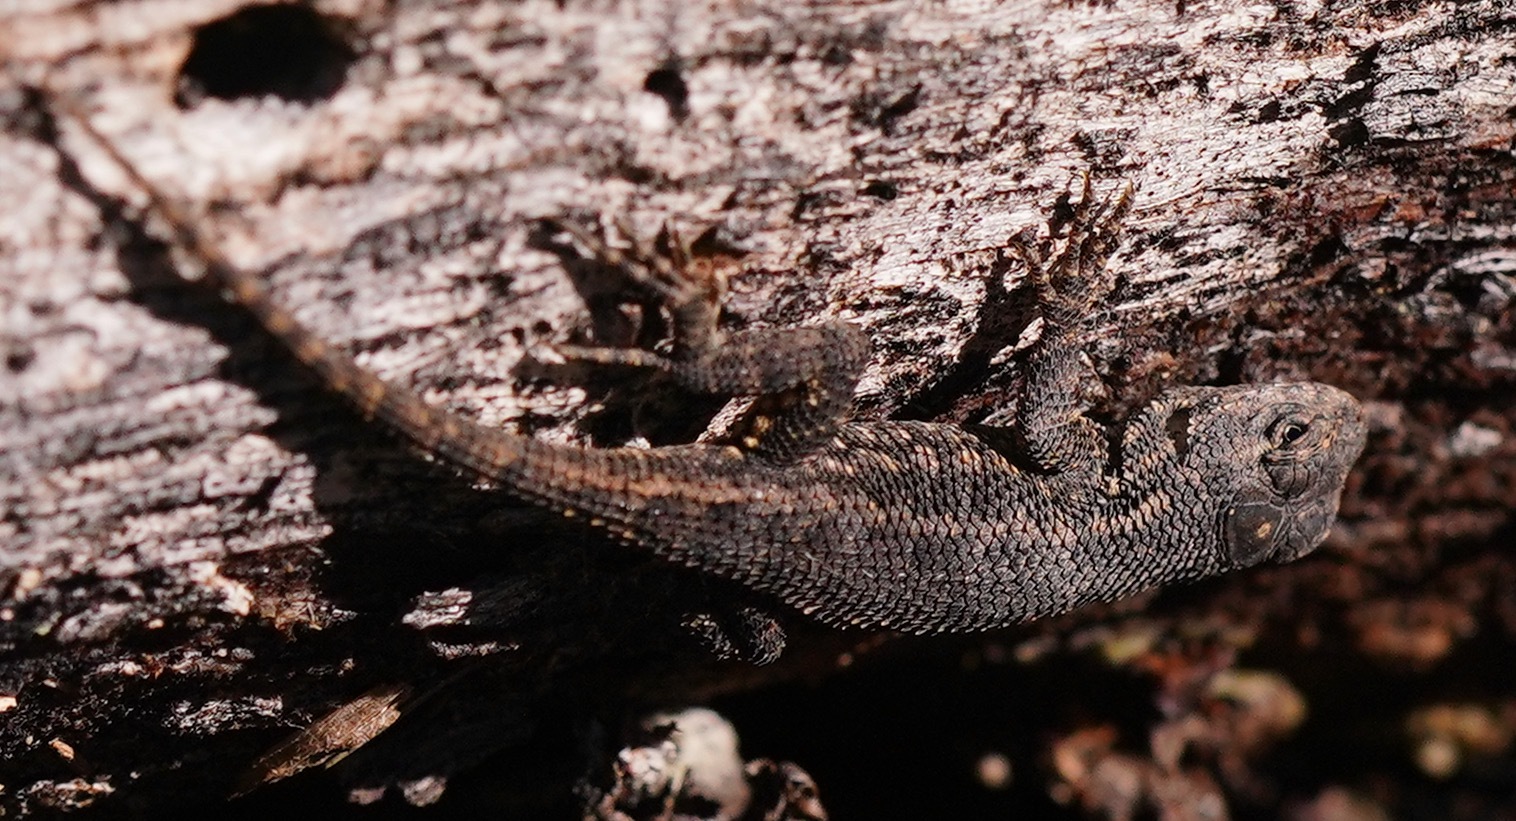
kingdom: Animalia
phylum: Chordata
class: Squamata
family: Phrynosomatidae
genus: Sceloporus
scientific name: Sceloporus occidentalis
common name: Western fence lizard
